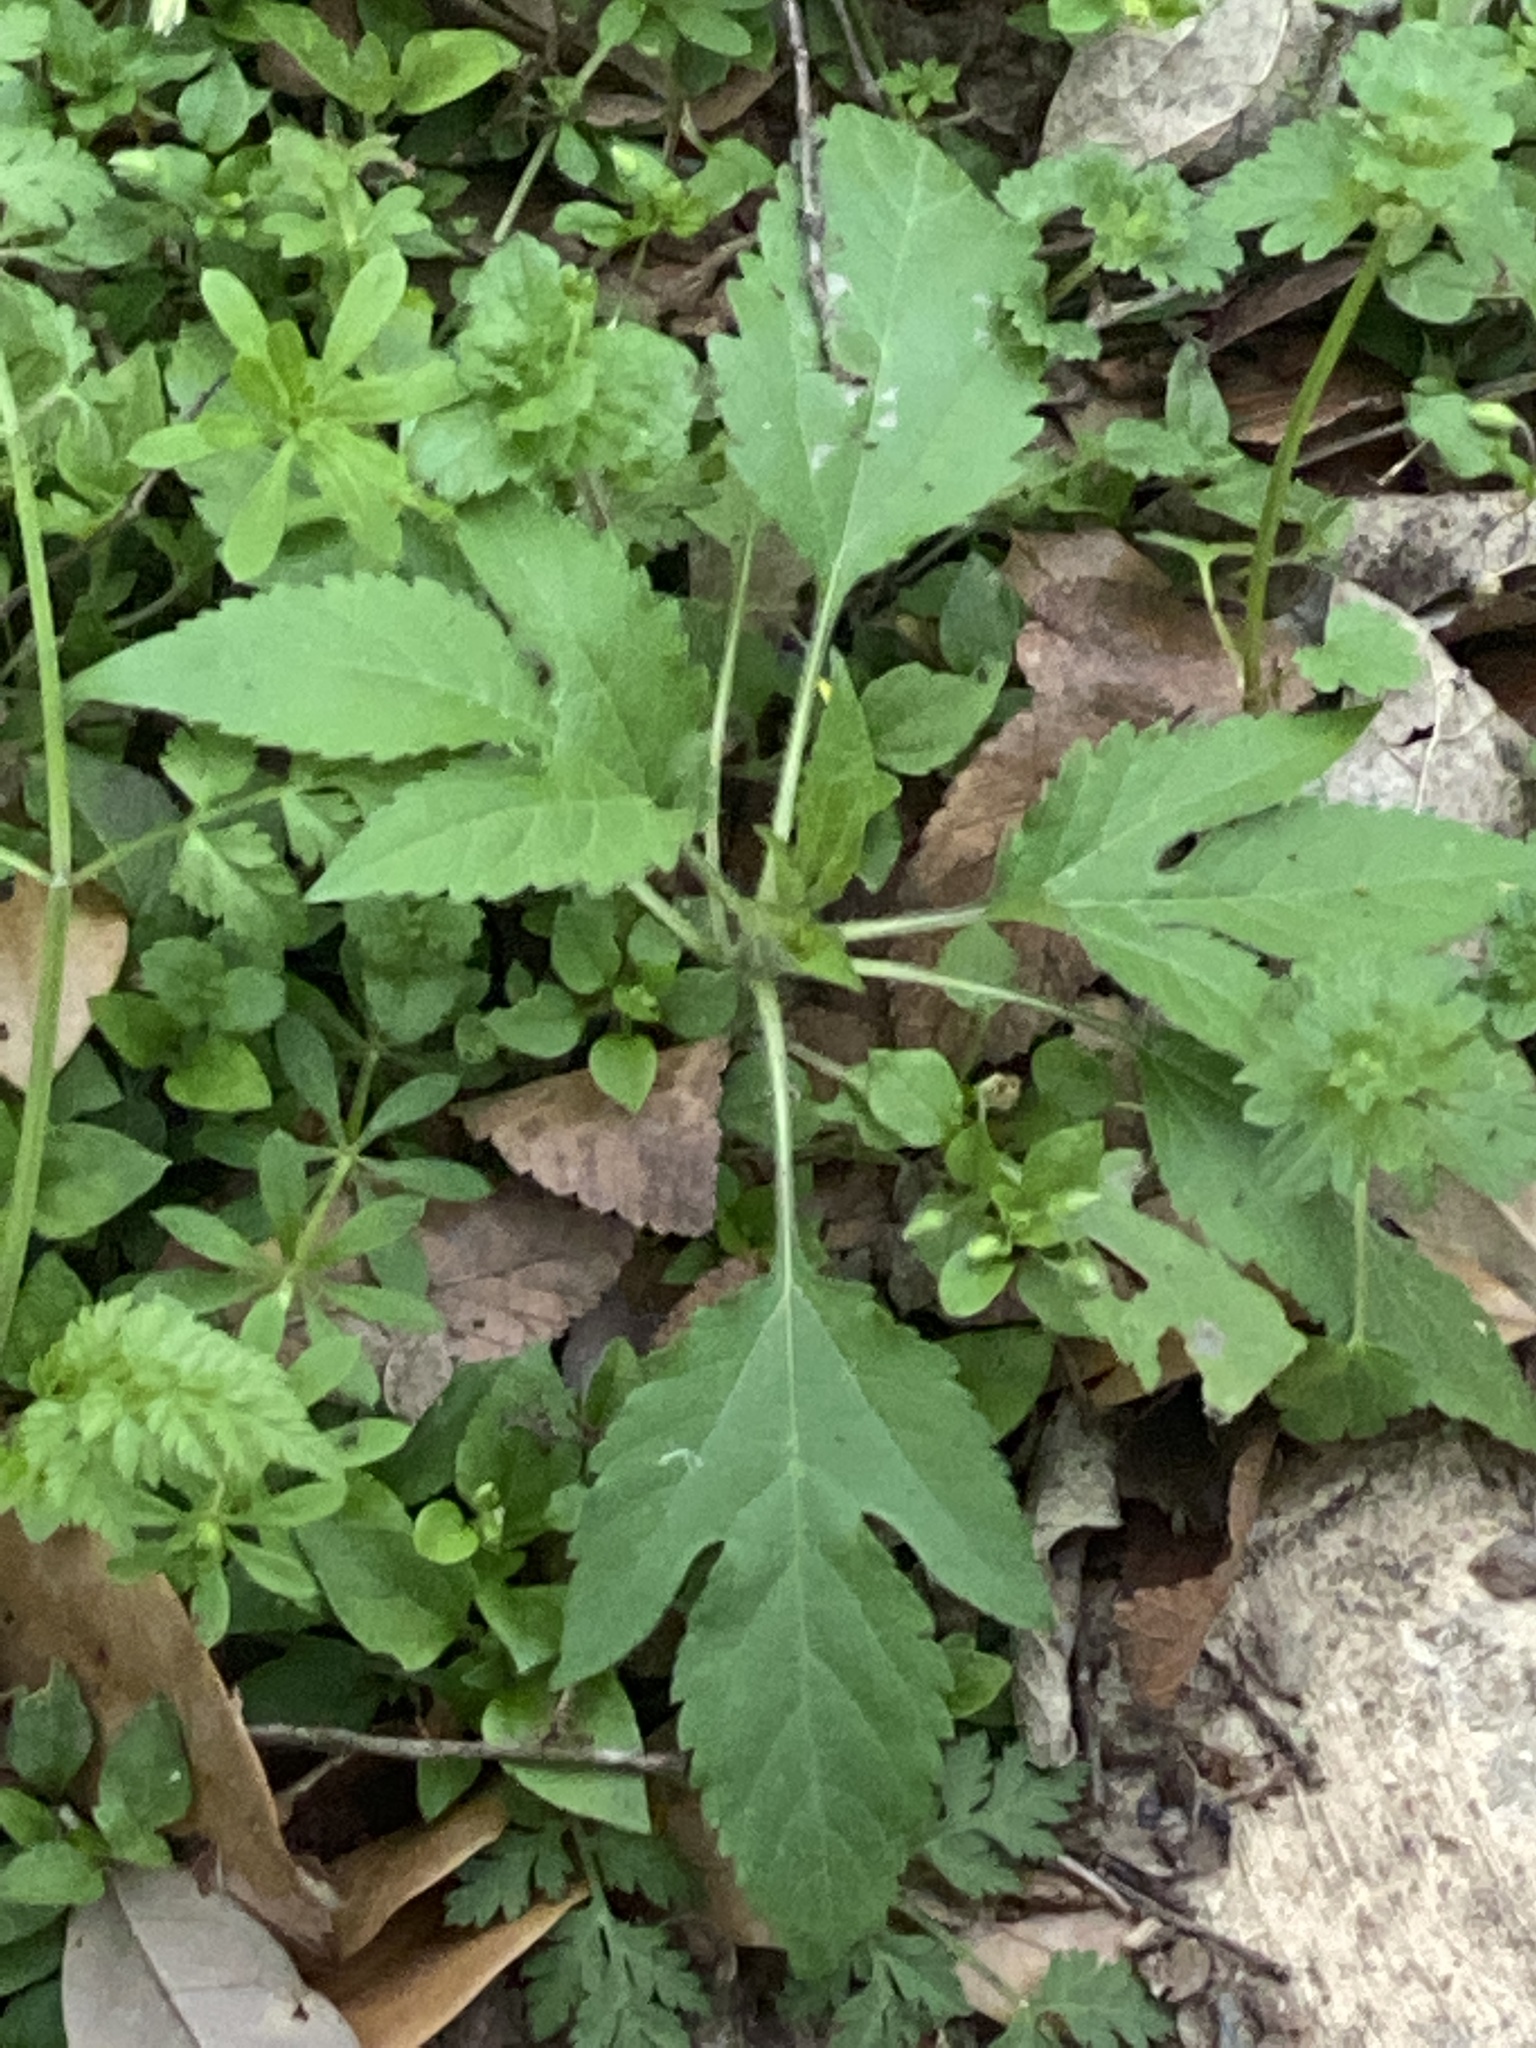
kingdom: Plantae
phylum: Tracheophyta
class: Magnoliopsida
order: Asterales
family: Asteraceae
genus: Ambrosia
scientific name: Ambrosia trifida
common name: Giant ragweed
